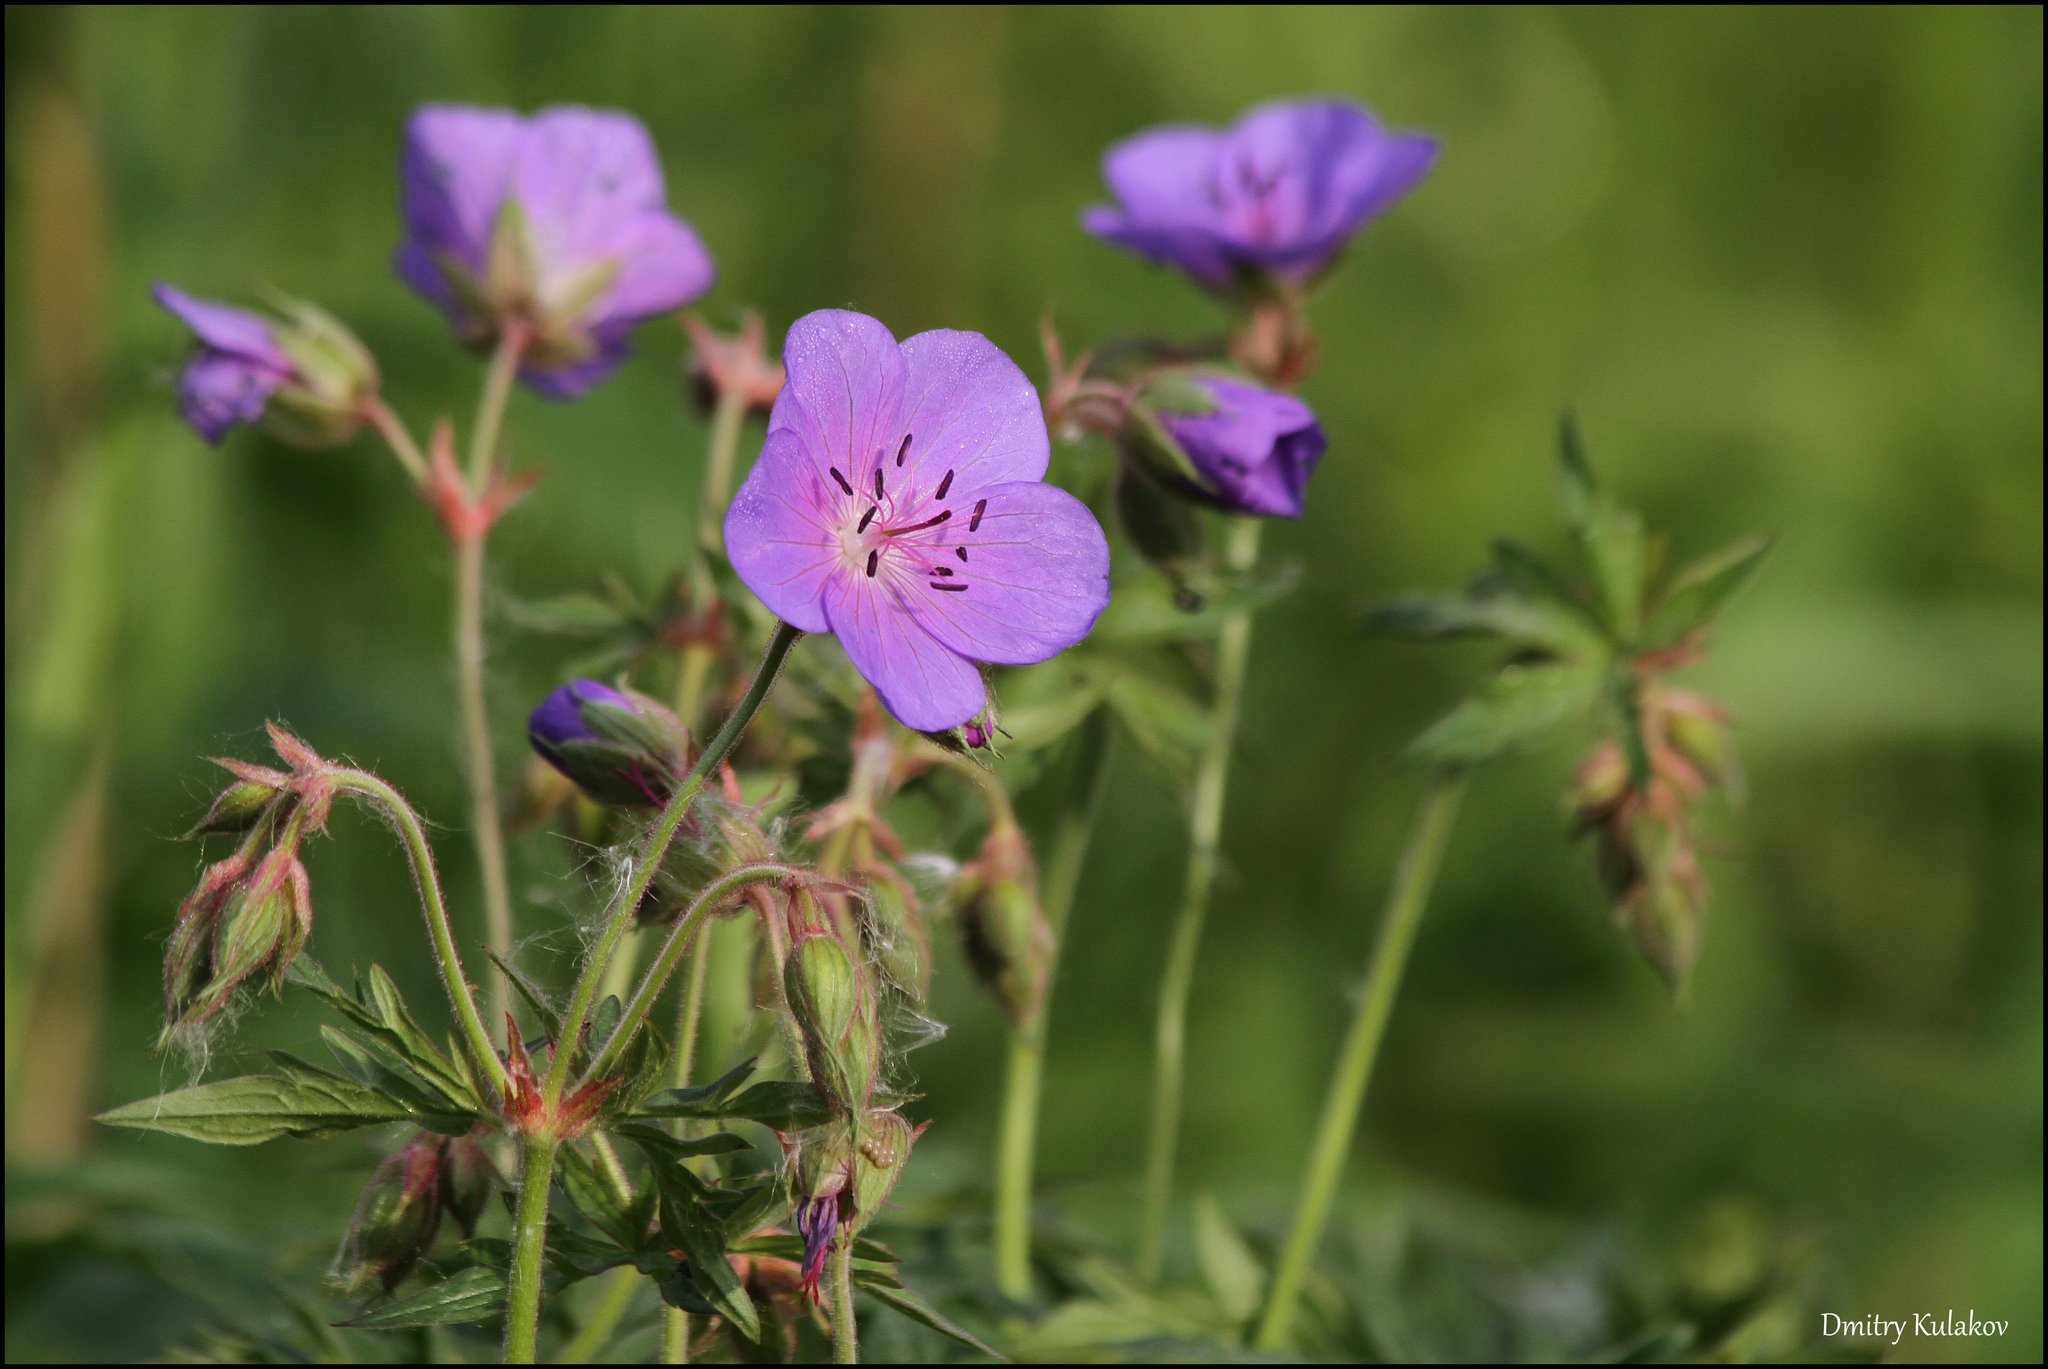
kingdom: Plantae
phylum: Tracheophyta
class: Magnoliopsida
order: Geraniales
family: Geraniaceae
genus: Geranium
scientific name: Geranium pratense
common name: Meadow crane's-bill
